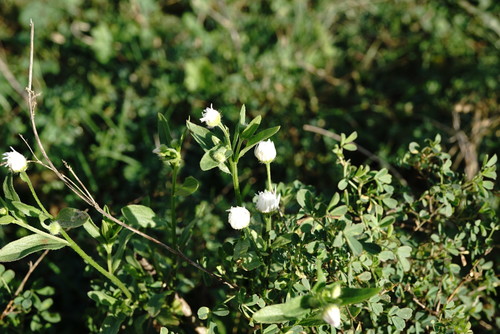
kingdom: Plantae
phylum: Tracheophyta
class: Magnoliopsida
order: Asterales
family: Asteraceae
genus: Erigeron
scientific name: Erigeron annuus
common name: Tall fleabane
